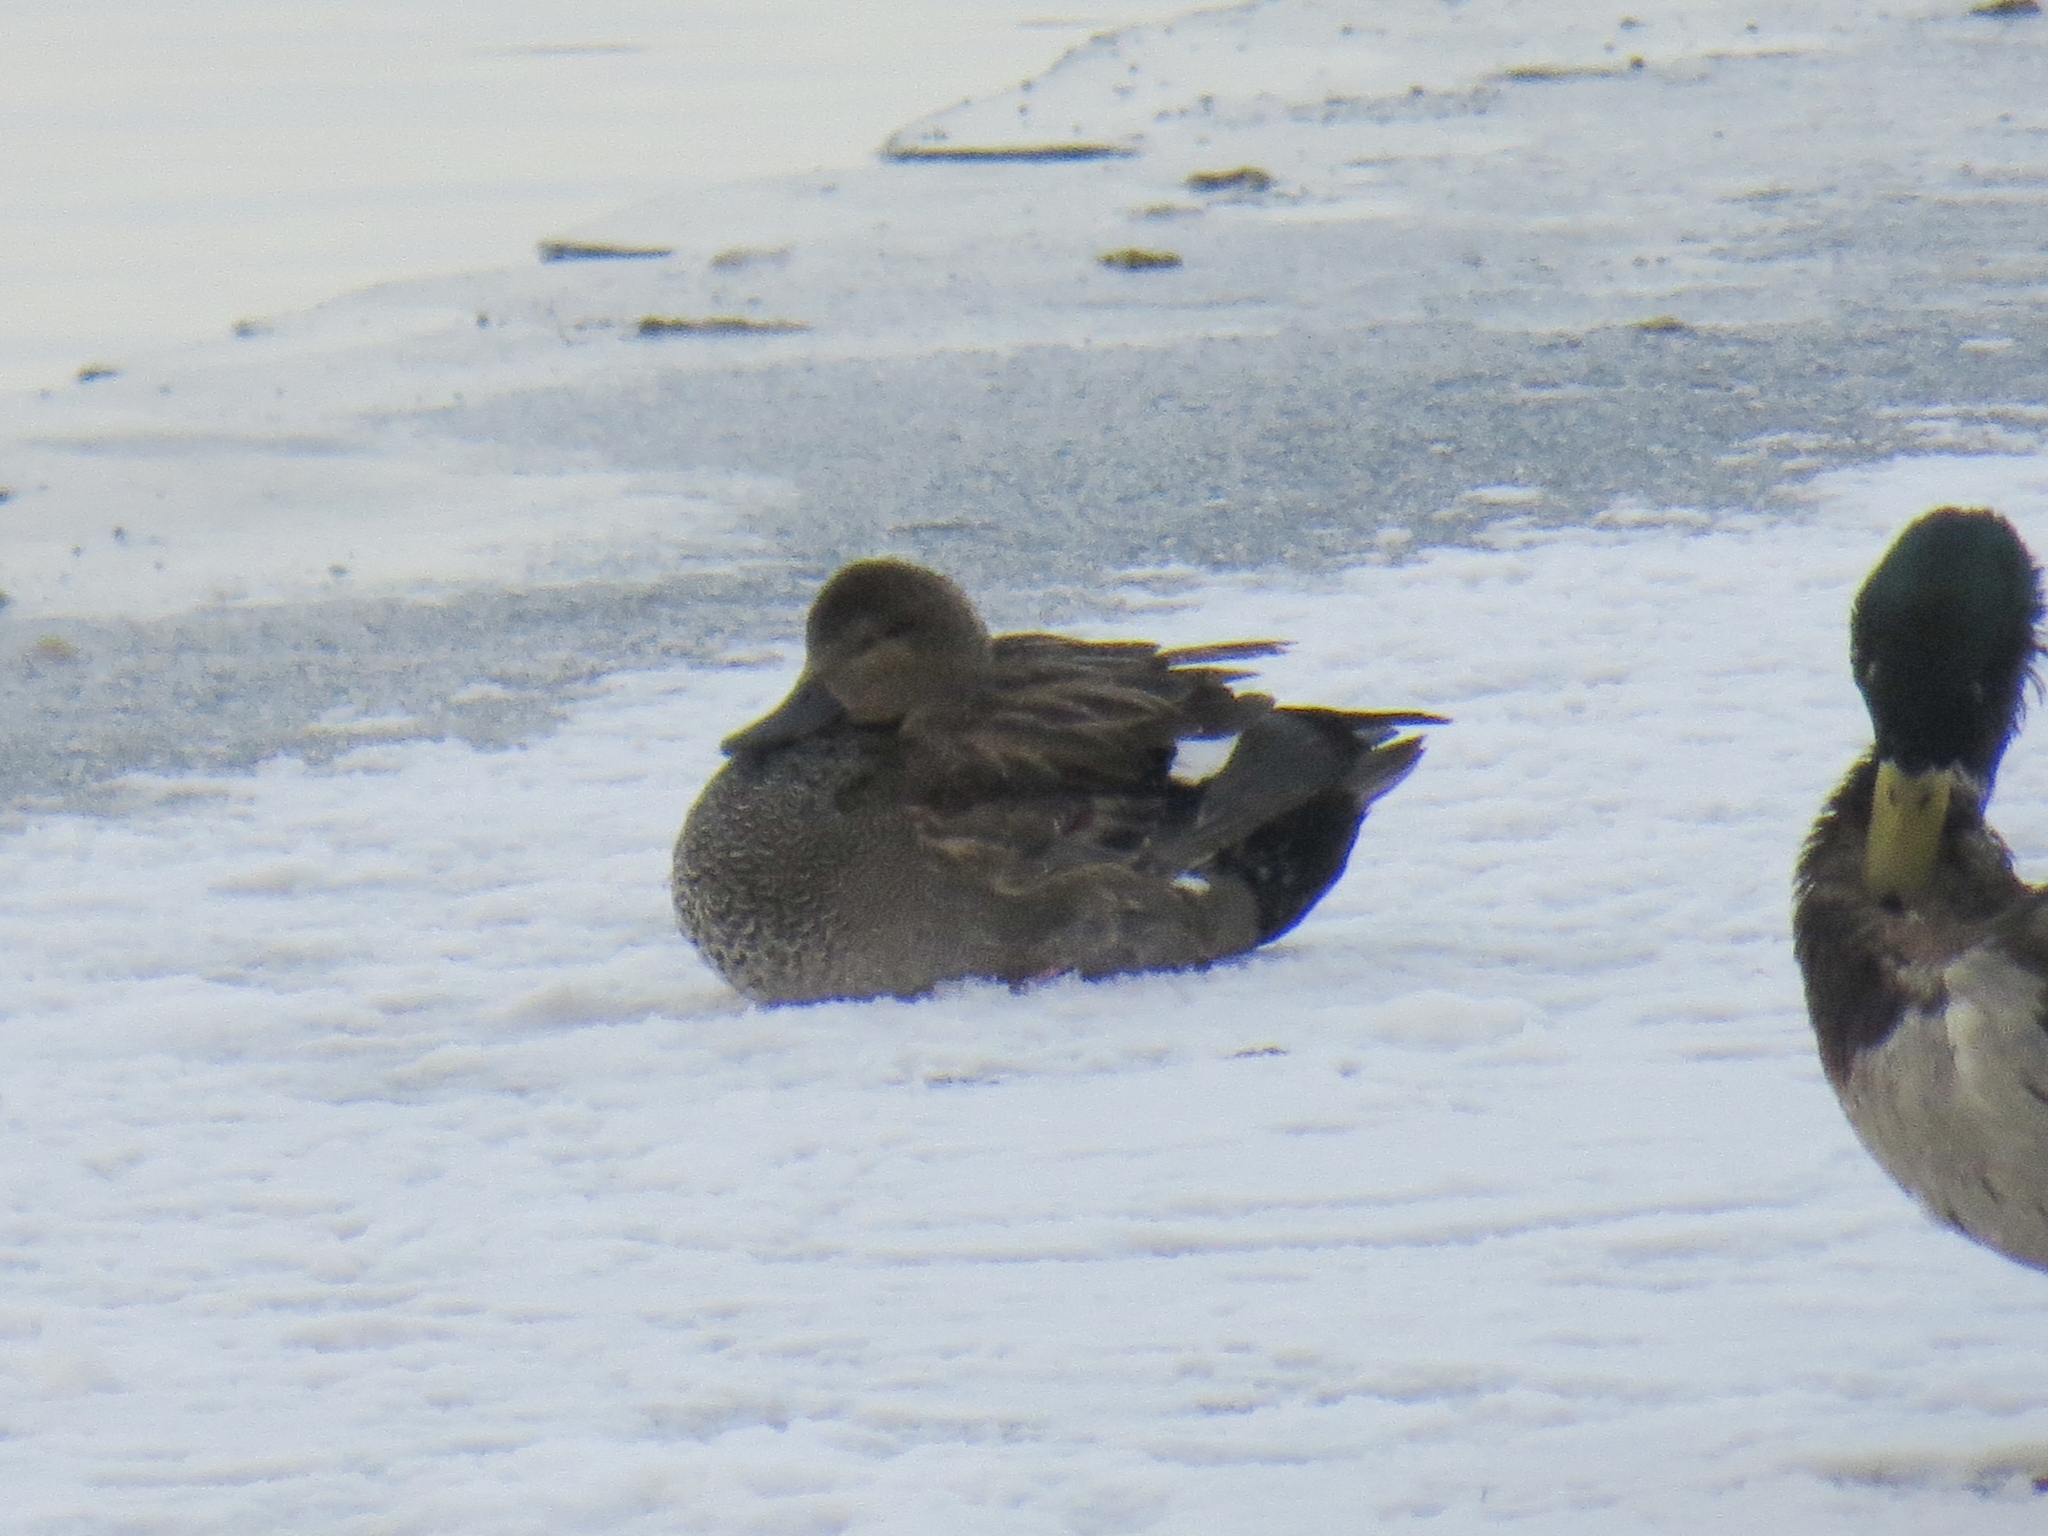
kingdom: Animalia
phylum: Chordata
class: Aves
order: Anseriformes
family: Anatidae
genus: Mareca
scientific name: Mareca strepera
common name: Gadwall
